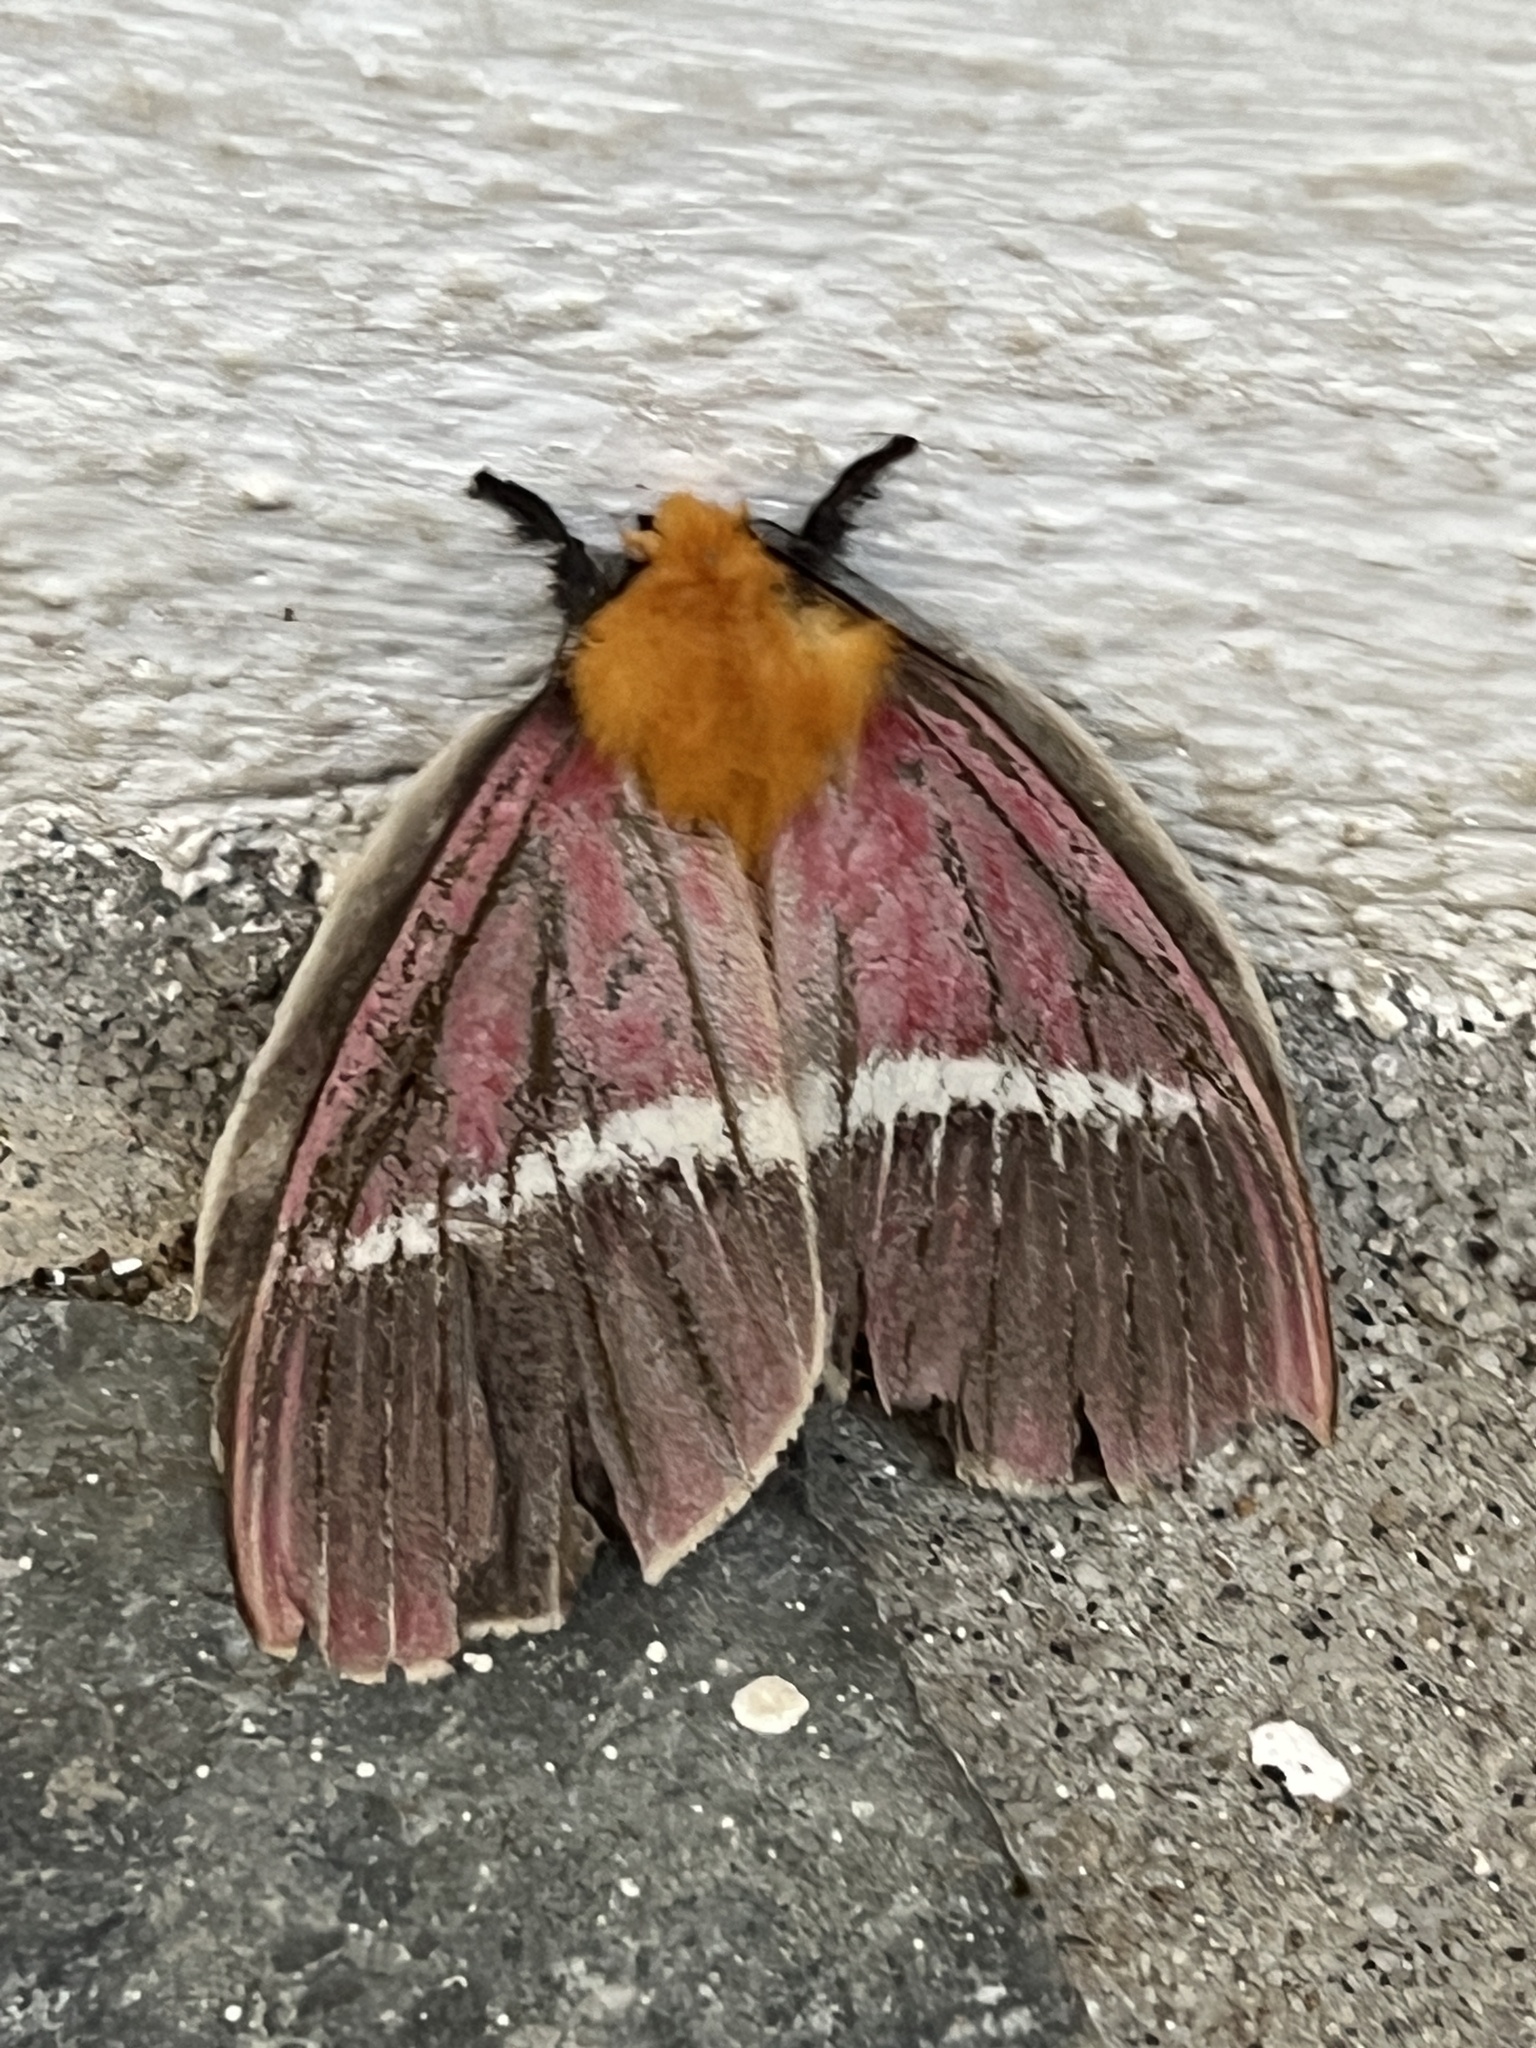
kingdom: Animalia
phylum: Arthropoda
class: Insecta
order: Lepidoptera
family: Saturniidae
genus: Pseudodirphia
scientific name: Pseudodirphia menander
